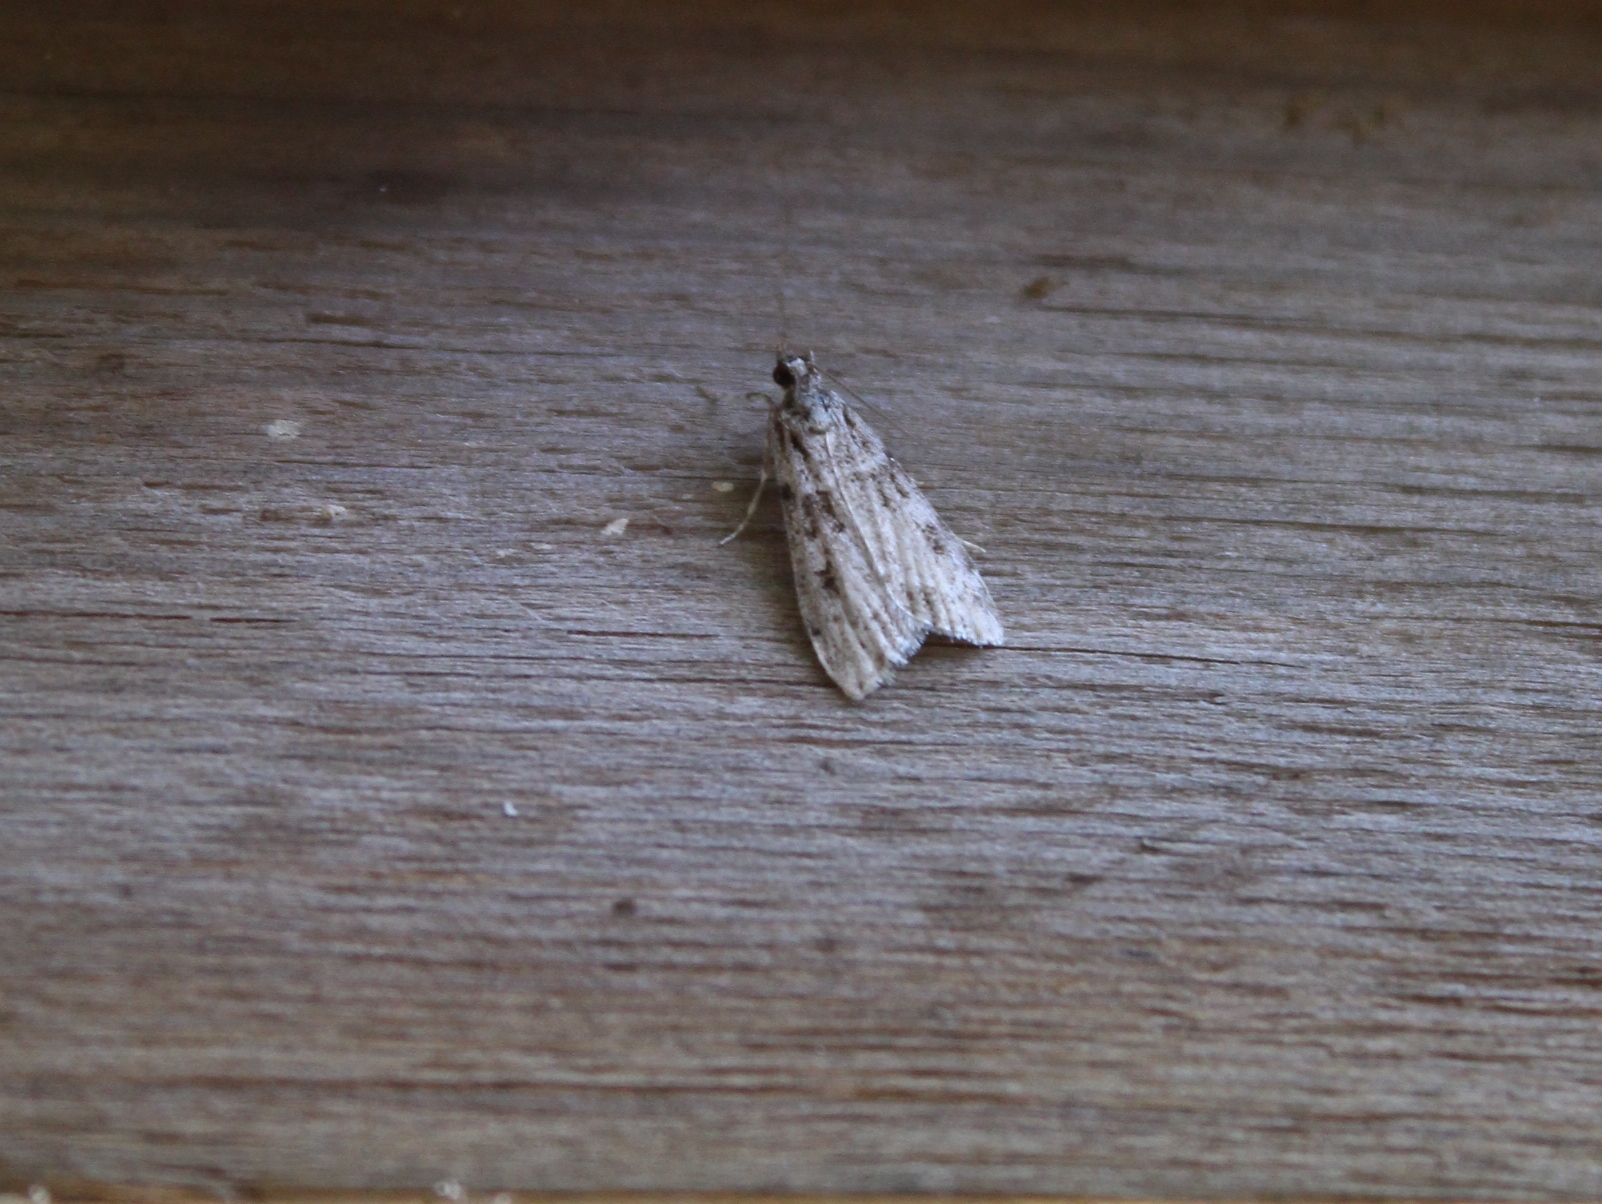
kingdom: Animalia
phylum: Arthropoda
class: Insecta
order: Lepidoptera
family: Crambidae
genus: Scoparia
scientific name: Scoparia biplagialis
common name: Double-striped scoparia moth
